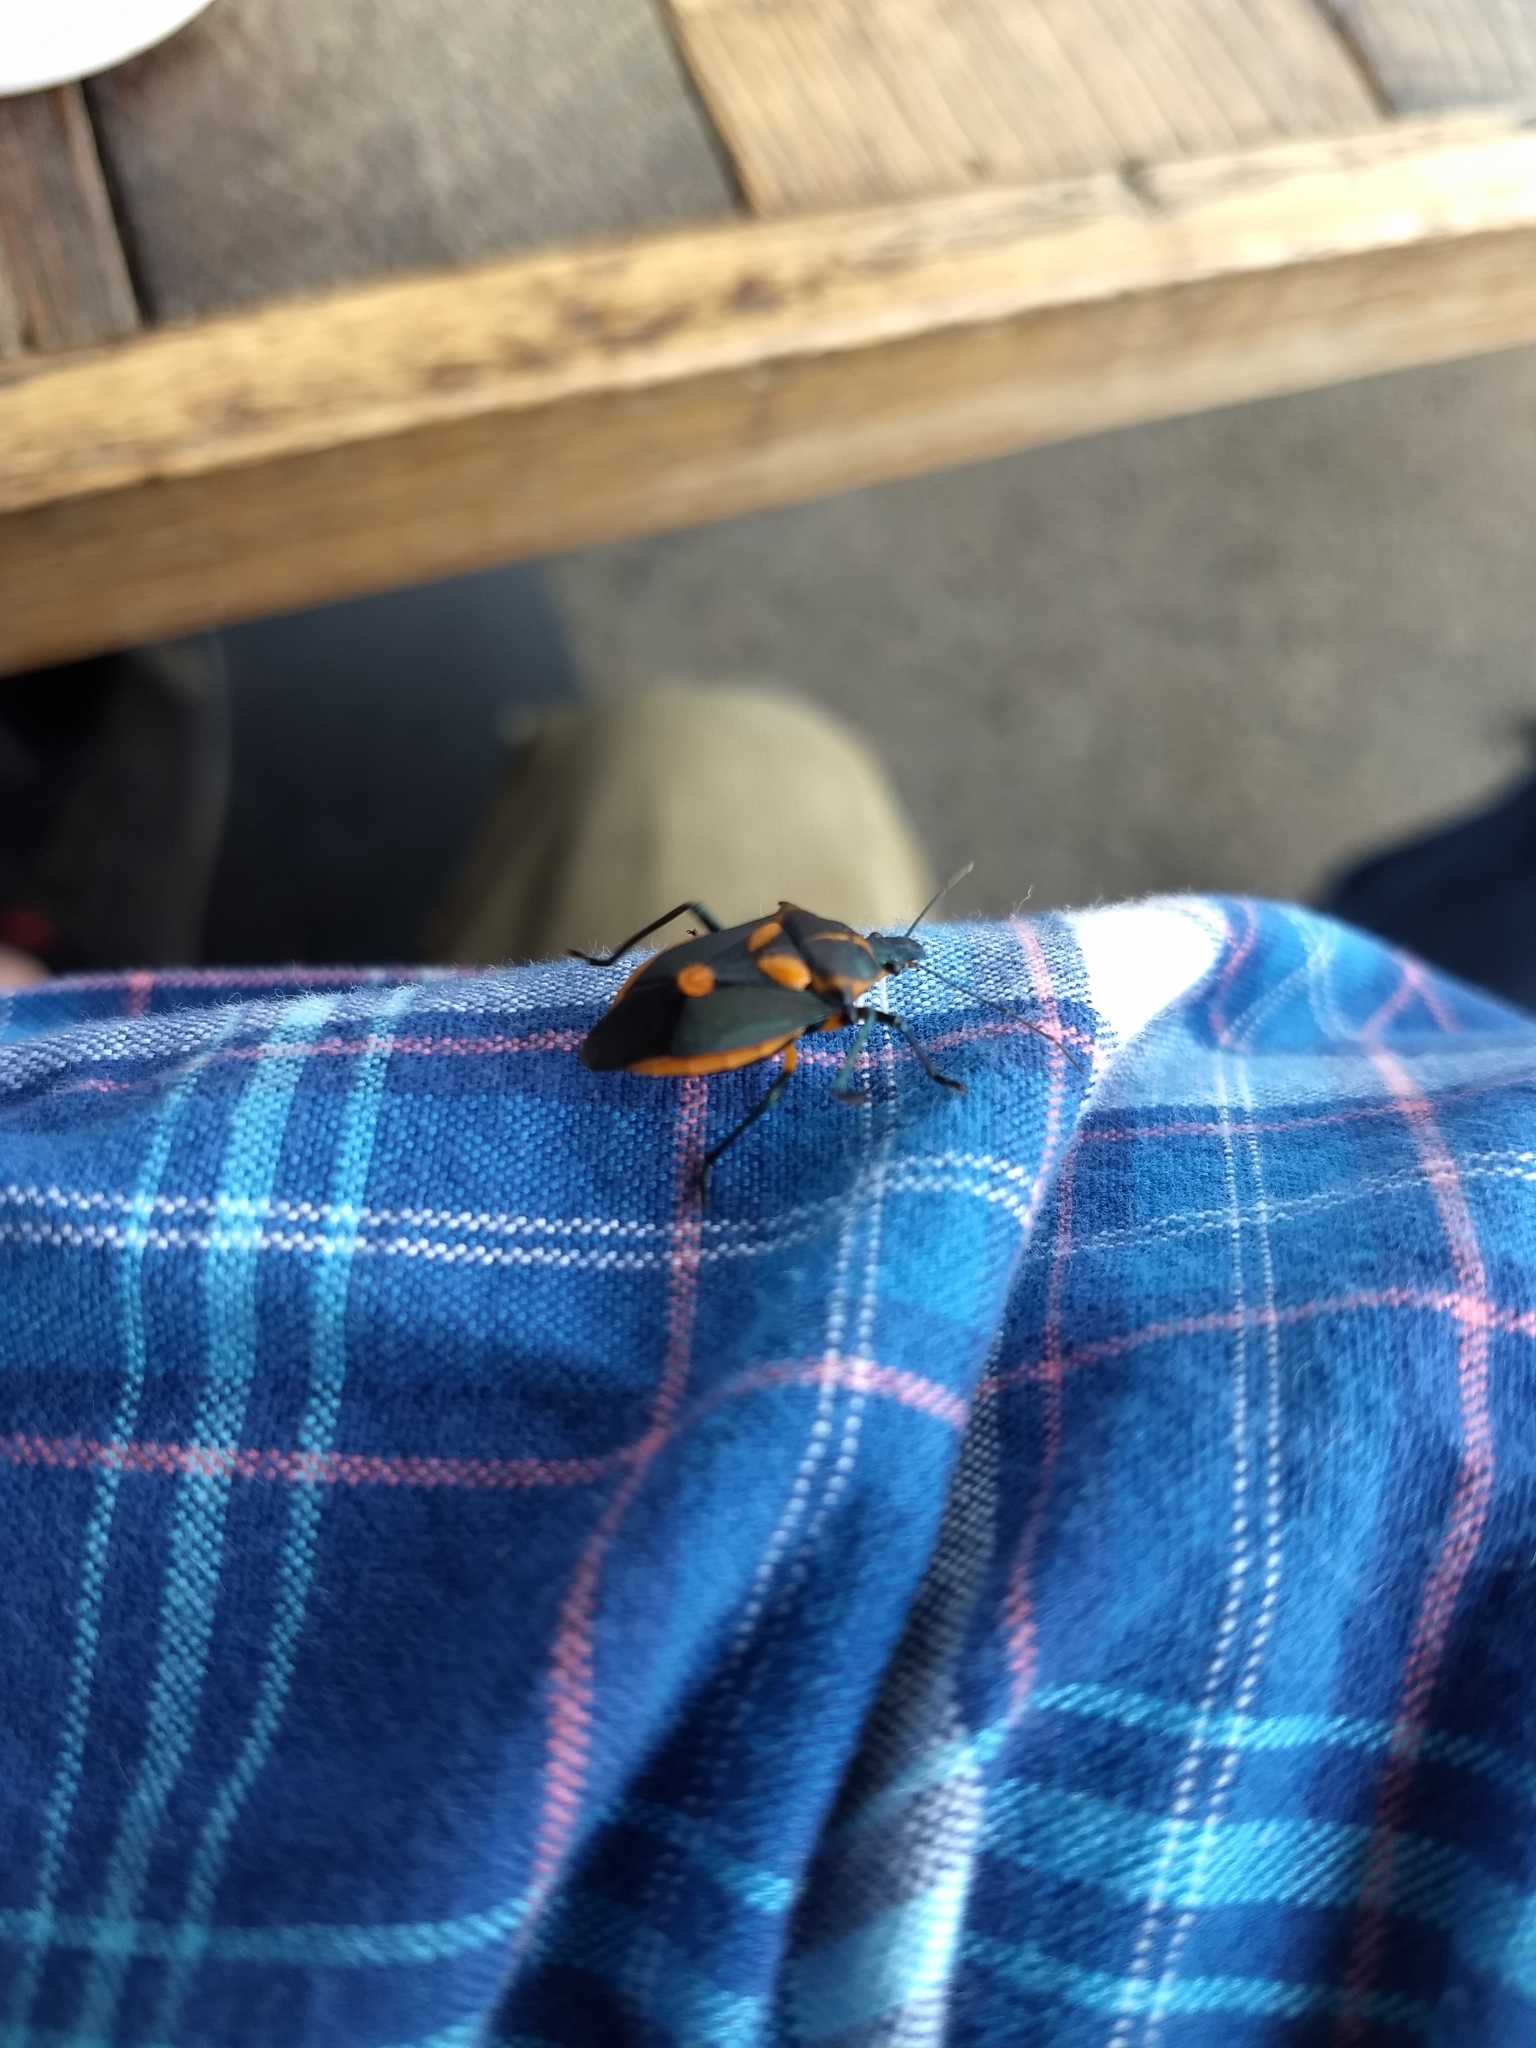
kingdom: Animalia
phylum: Arthropoda
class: Insecta
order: Hemiptera
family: Pentatomidae
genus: Euthyrhynchus
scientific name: Euthyrhynchus floridanus
